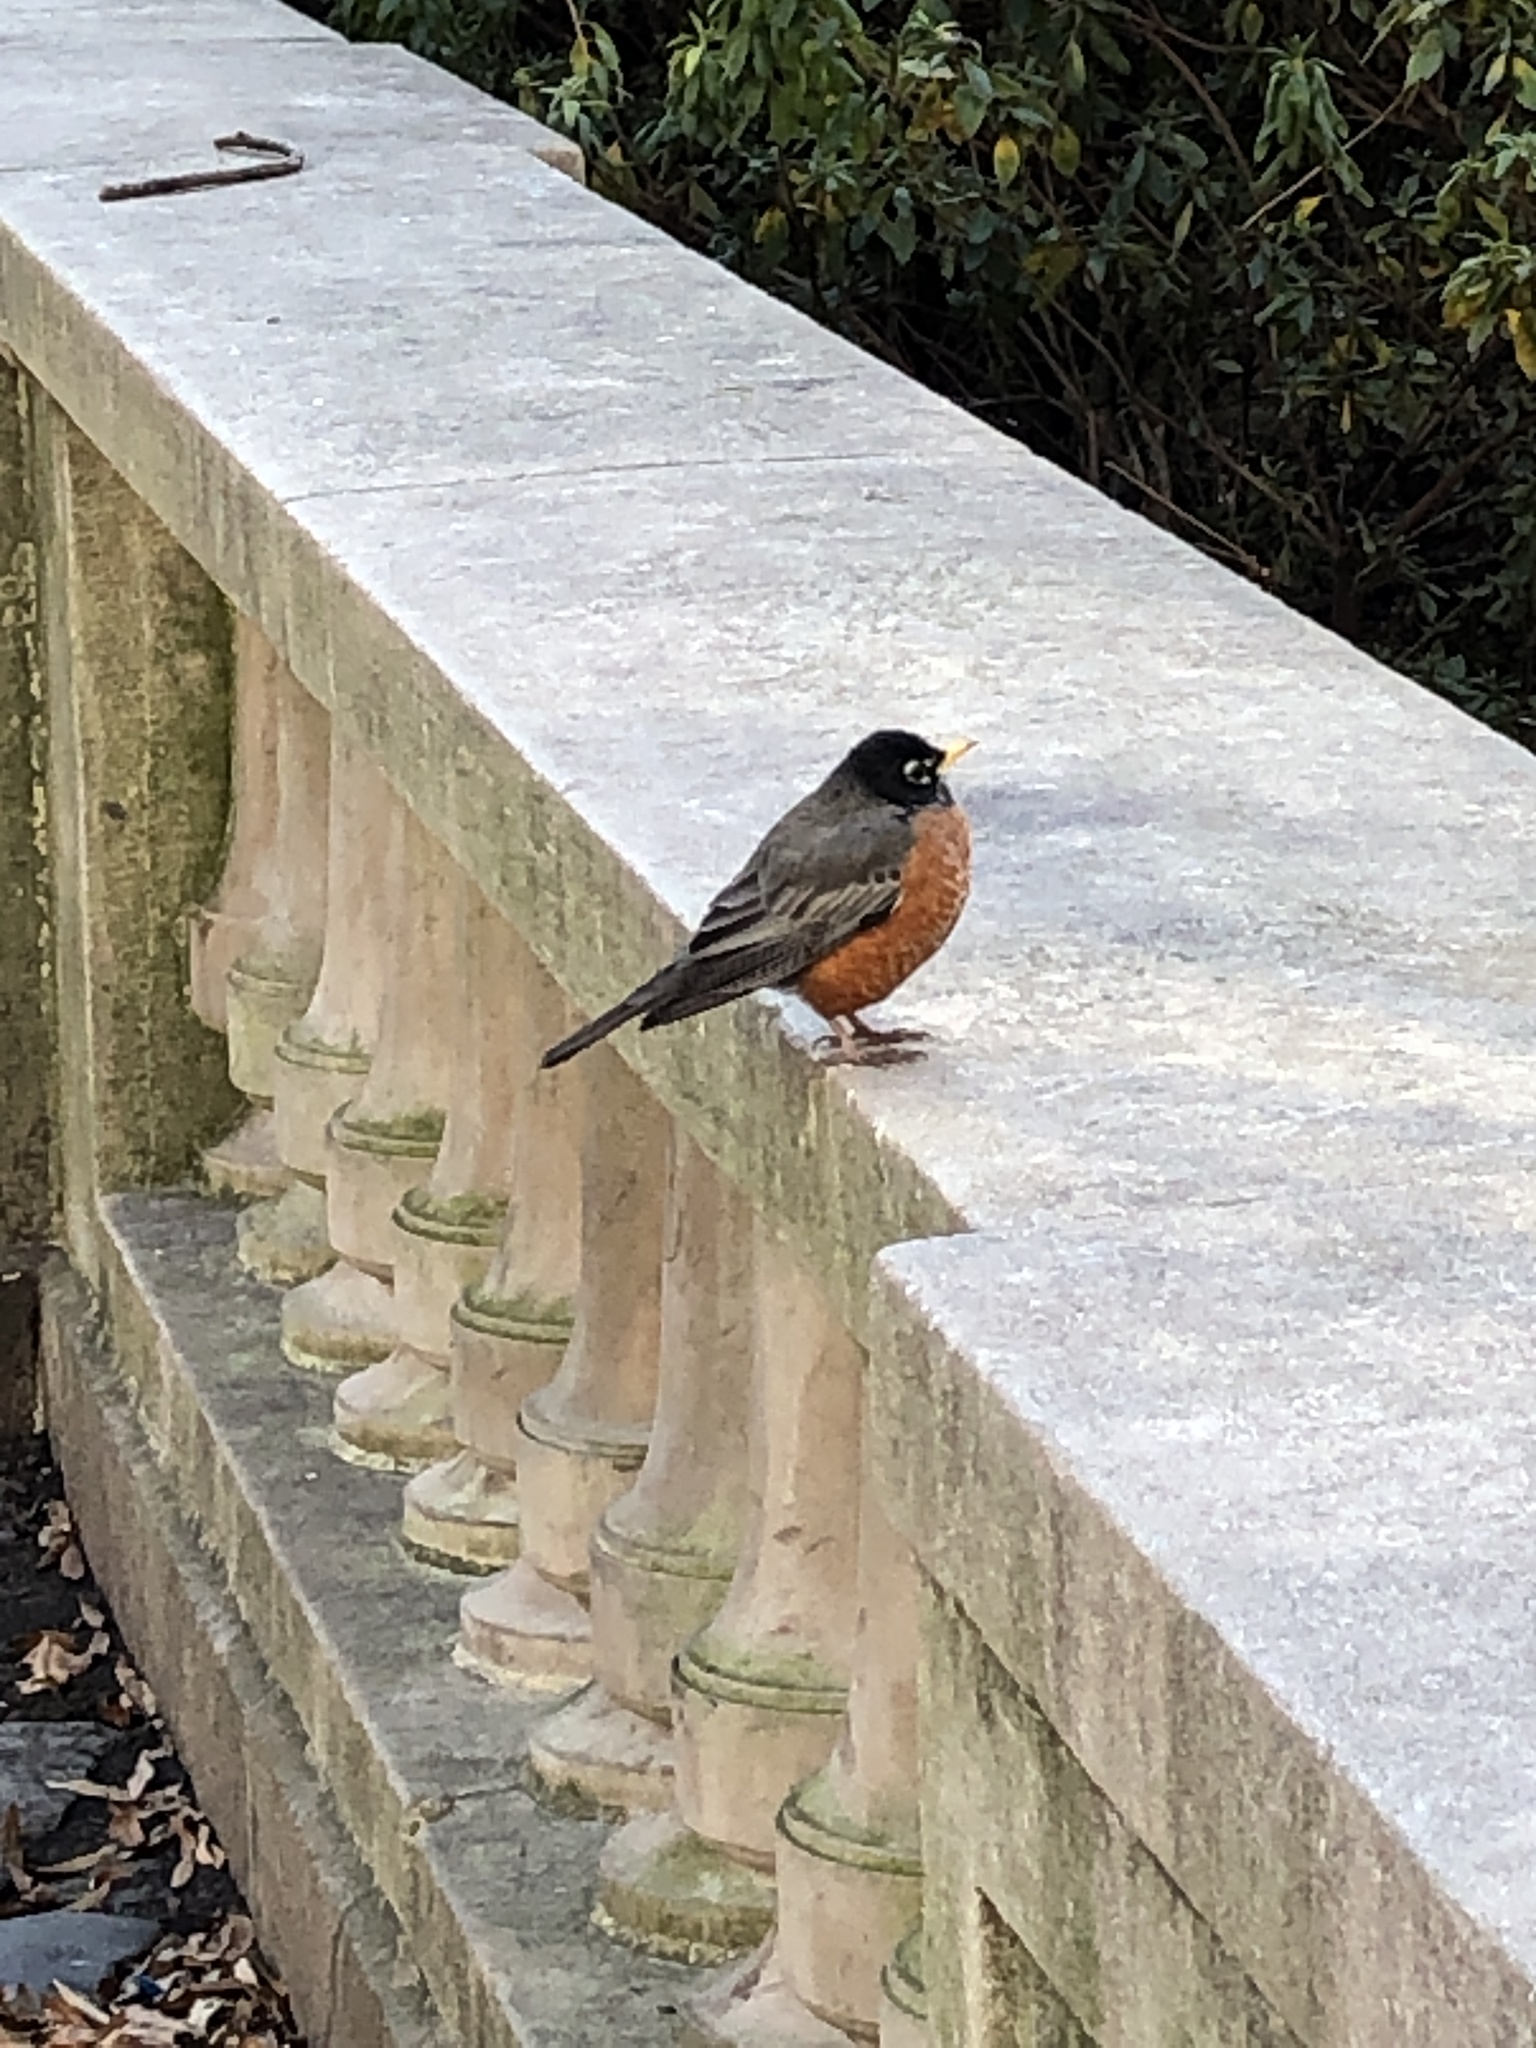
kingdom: Animalia
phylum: Chordata
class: Aves
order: Passeriformes
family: Turdidae
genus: Turdus
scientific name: Turdus migratorius
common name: American robin
